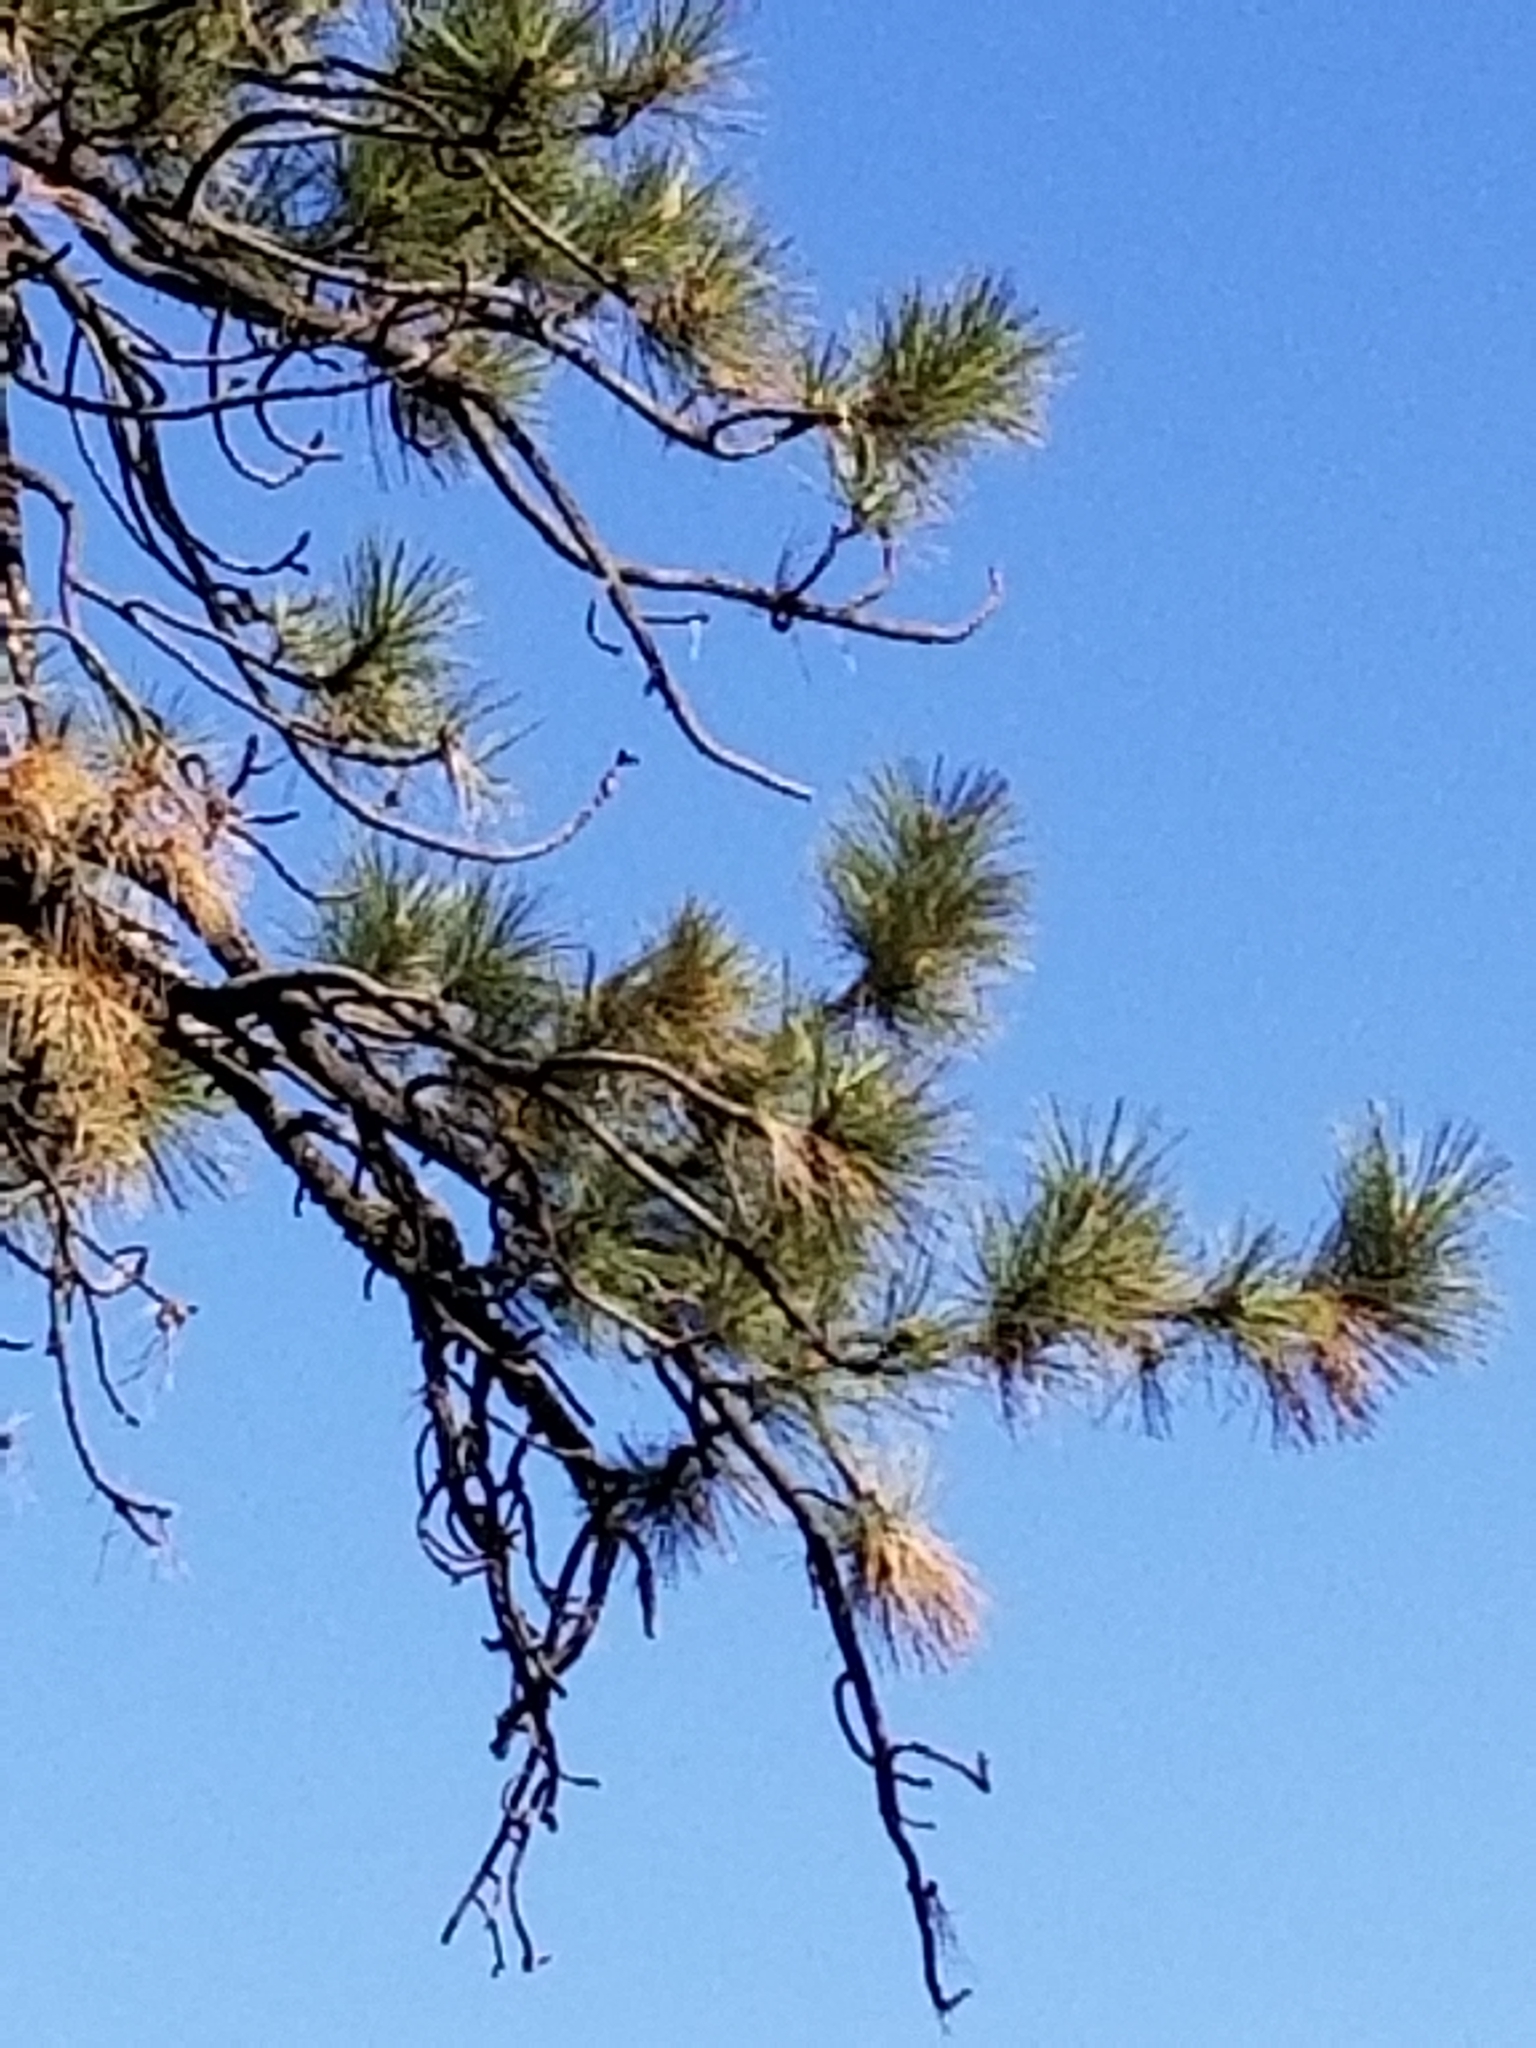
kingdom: Plantae
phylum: Tracheophyta
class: Pinopsida
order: Pinales
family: Pinaceae
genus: Pinus
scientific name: Pinus jeffreyi
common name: Jeffrey pine
